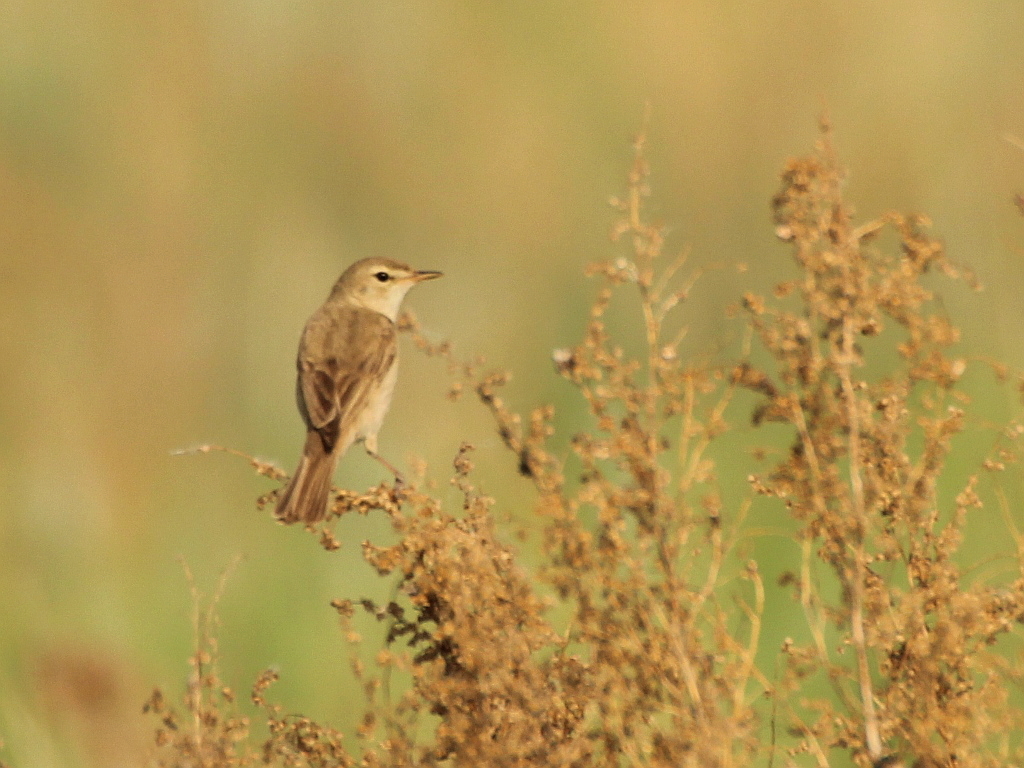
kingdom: Animalia
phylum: Chordata
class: Aves
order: Passeriformes
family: Acrocephalidae
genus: Iduna
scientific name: Iduna caligata
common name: Booted warbler
